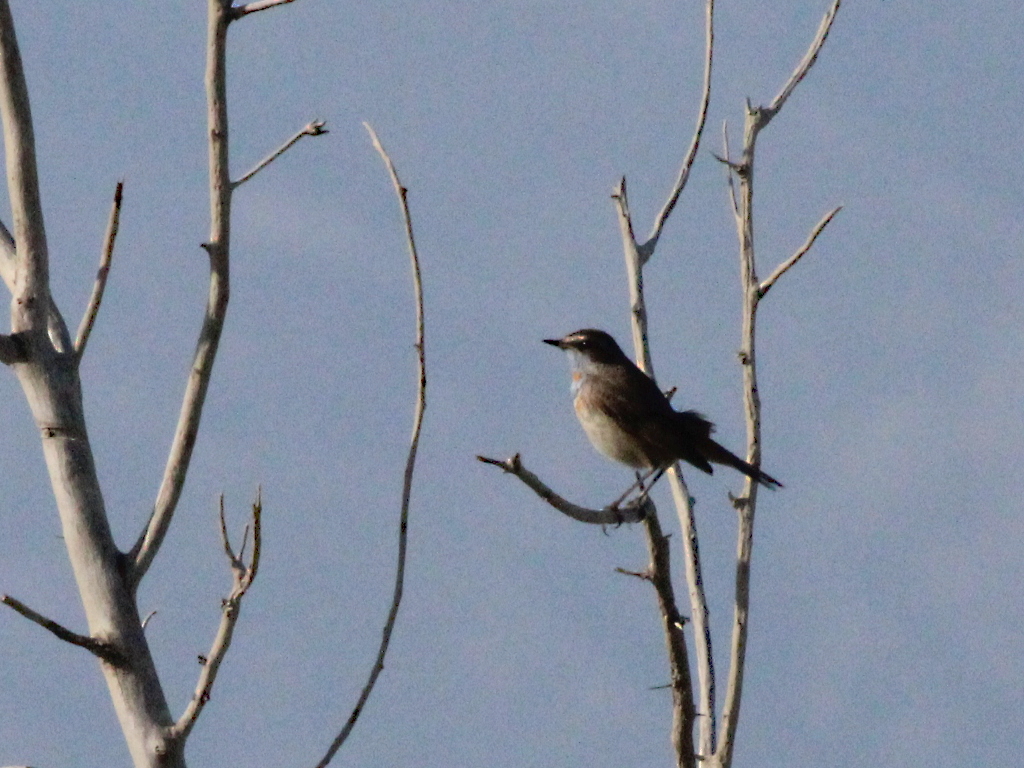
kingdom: Animalia
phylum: Chordata
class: Aves
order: Passeriformes
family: Muscicapidae
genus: Luscinia
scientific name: Luscinia svecica
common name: Bluethroat
